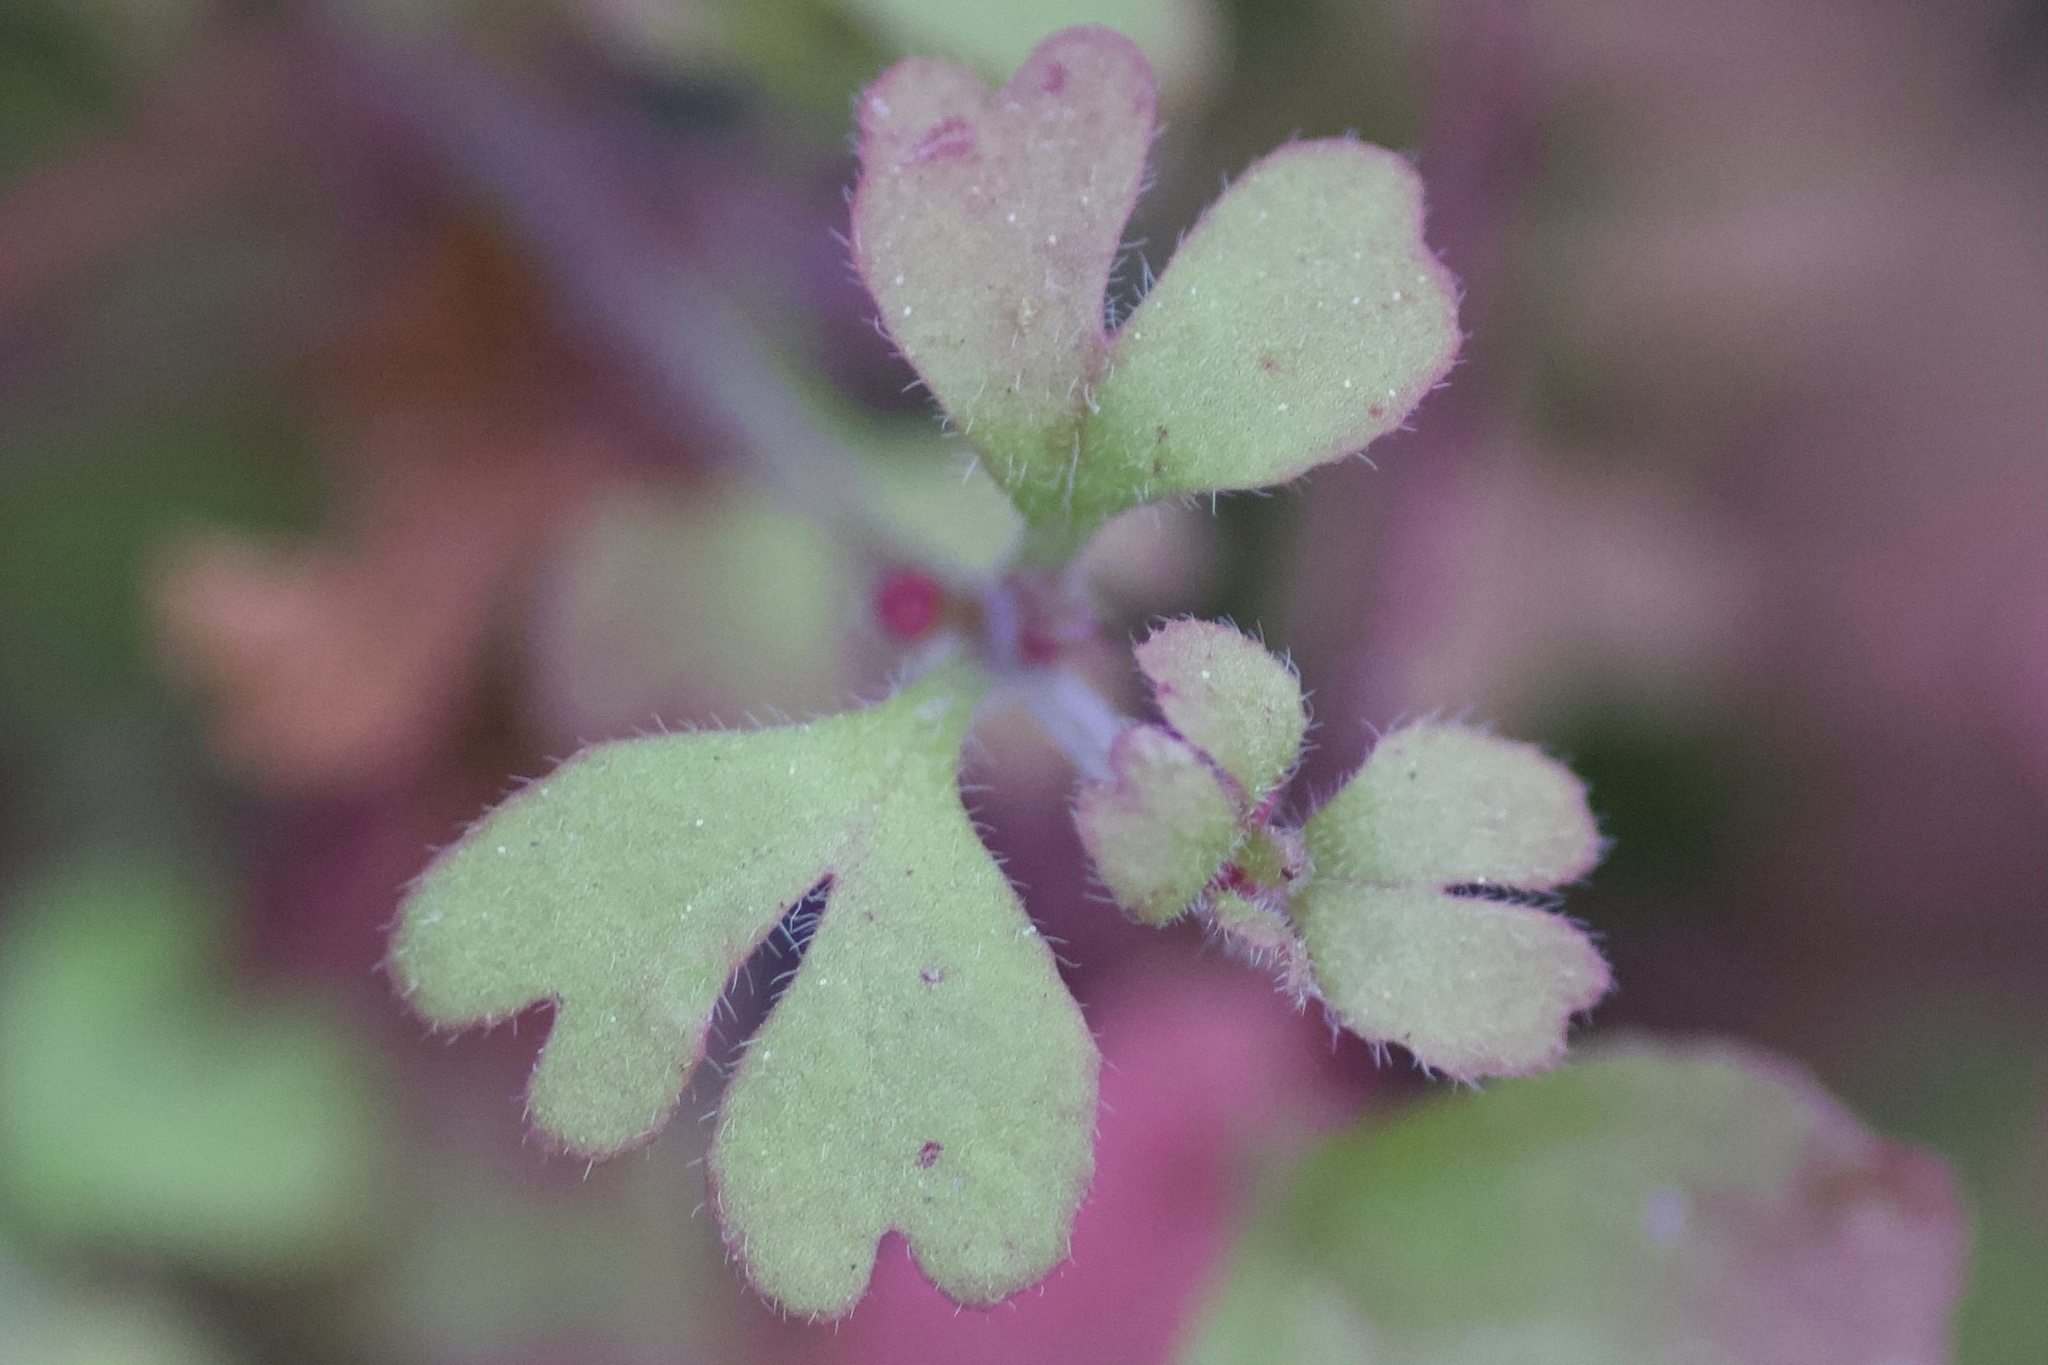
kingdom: Plantae
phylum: Tracheophyta
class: Magnoliopsida
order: Caryophyllales
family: Polygonaceae
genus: Pterostegia
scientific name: Pterostegia drymarioides
